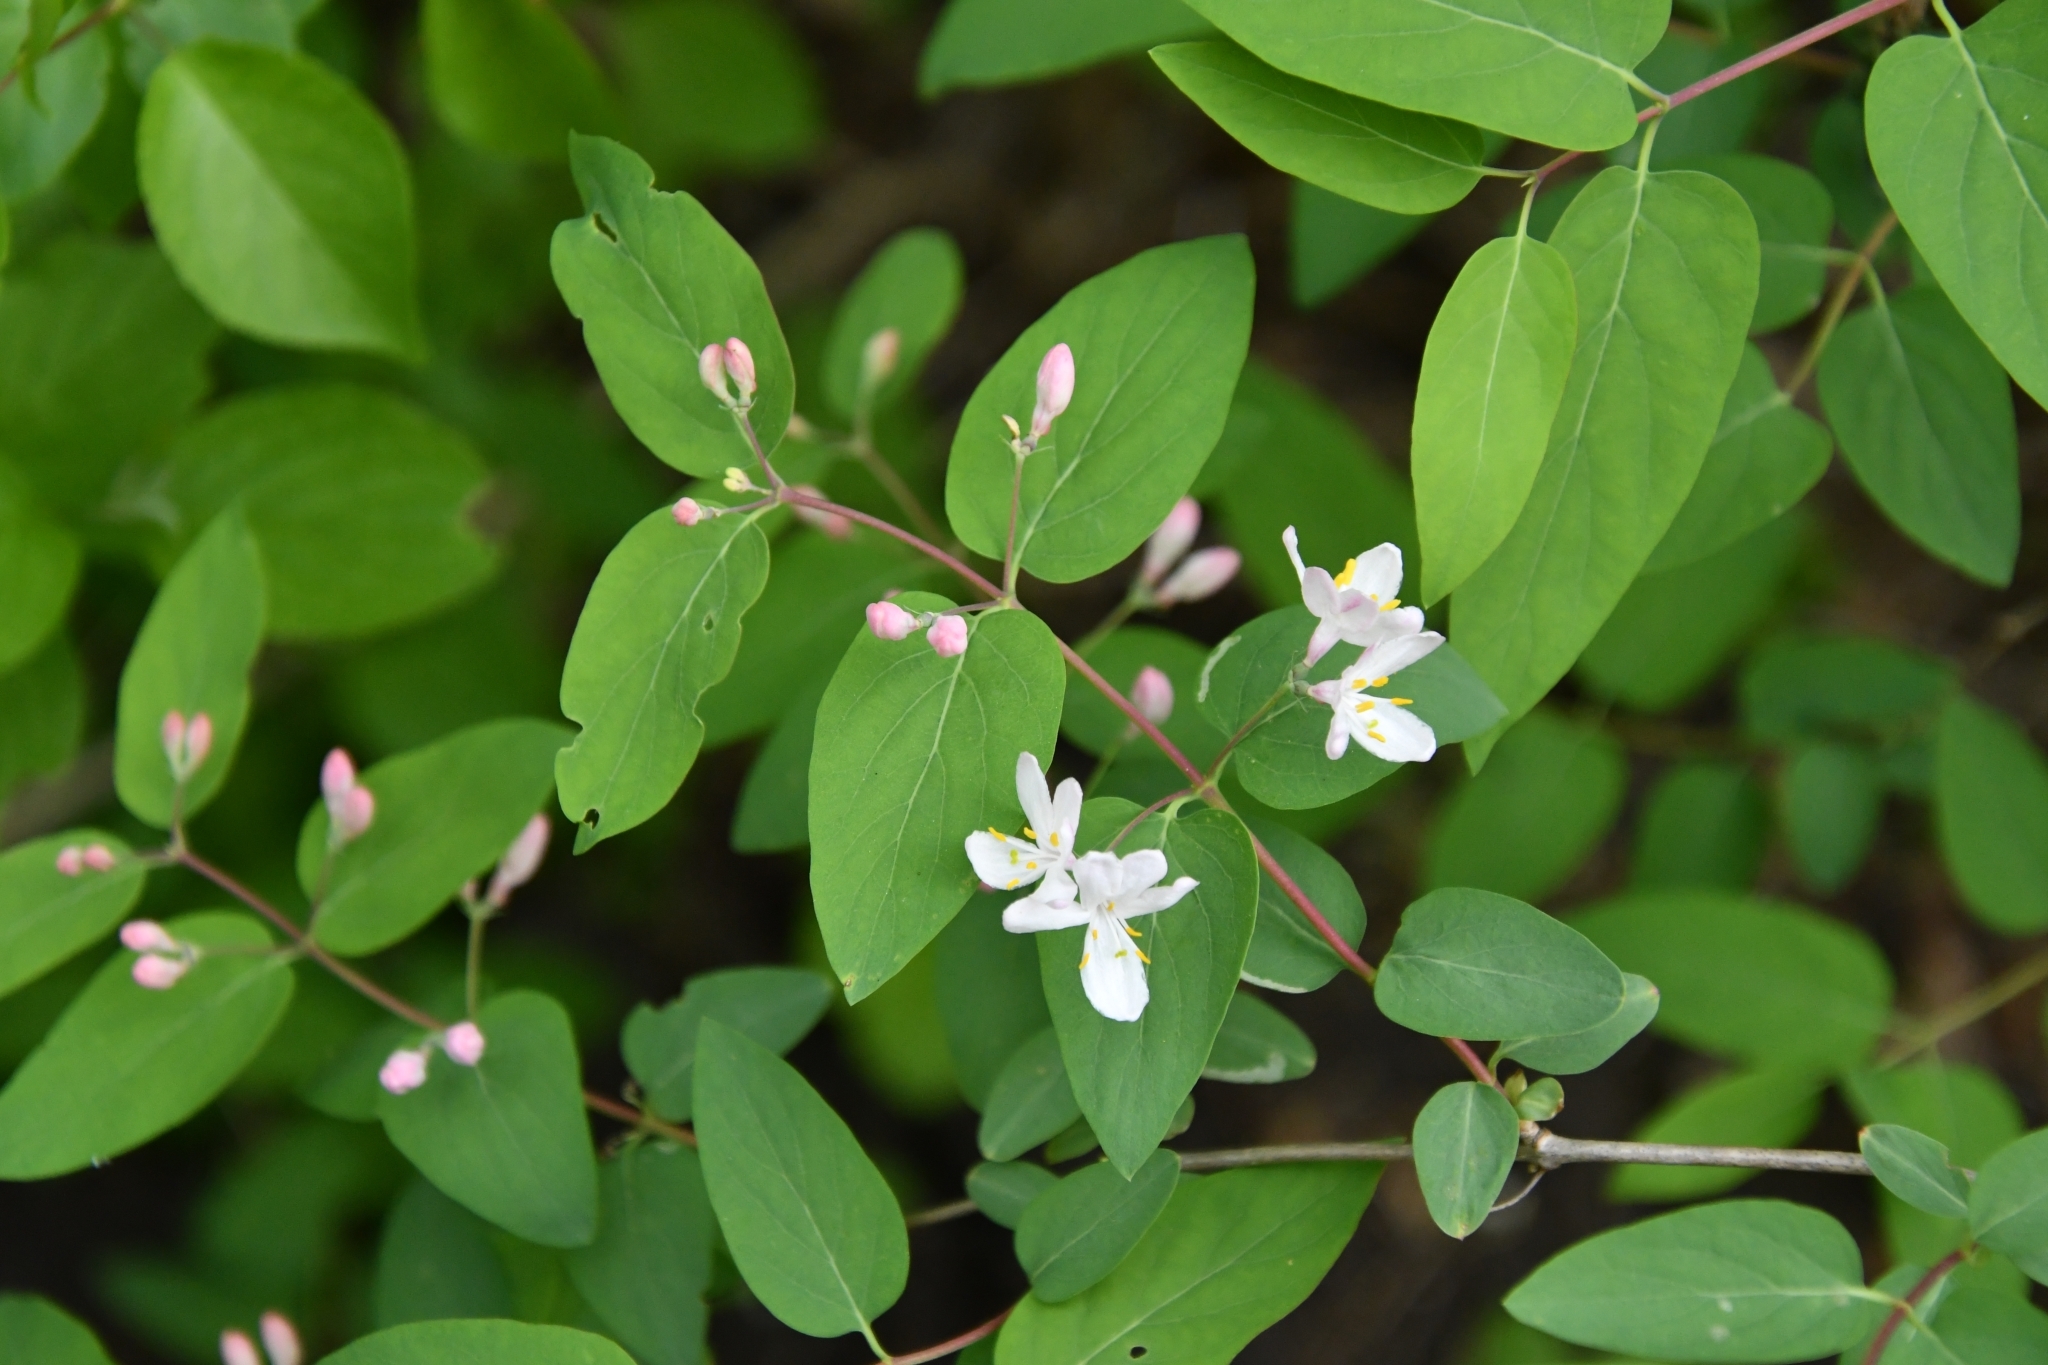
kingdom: Plantae
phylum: Tracheophyta
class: Magnoliopsida
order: Dipsacales
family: Caprifoliaceae
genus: Lonicera
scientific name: Lonicera tatarica
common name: Tatarian honeysuckle
